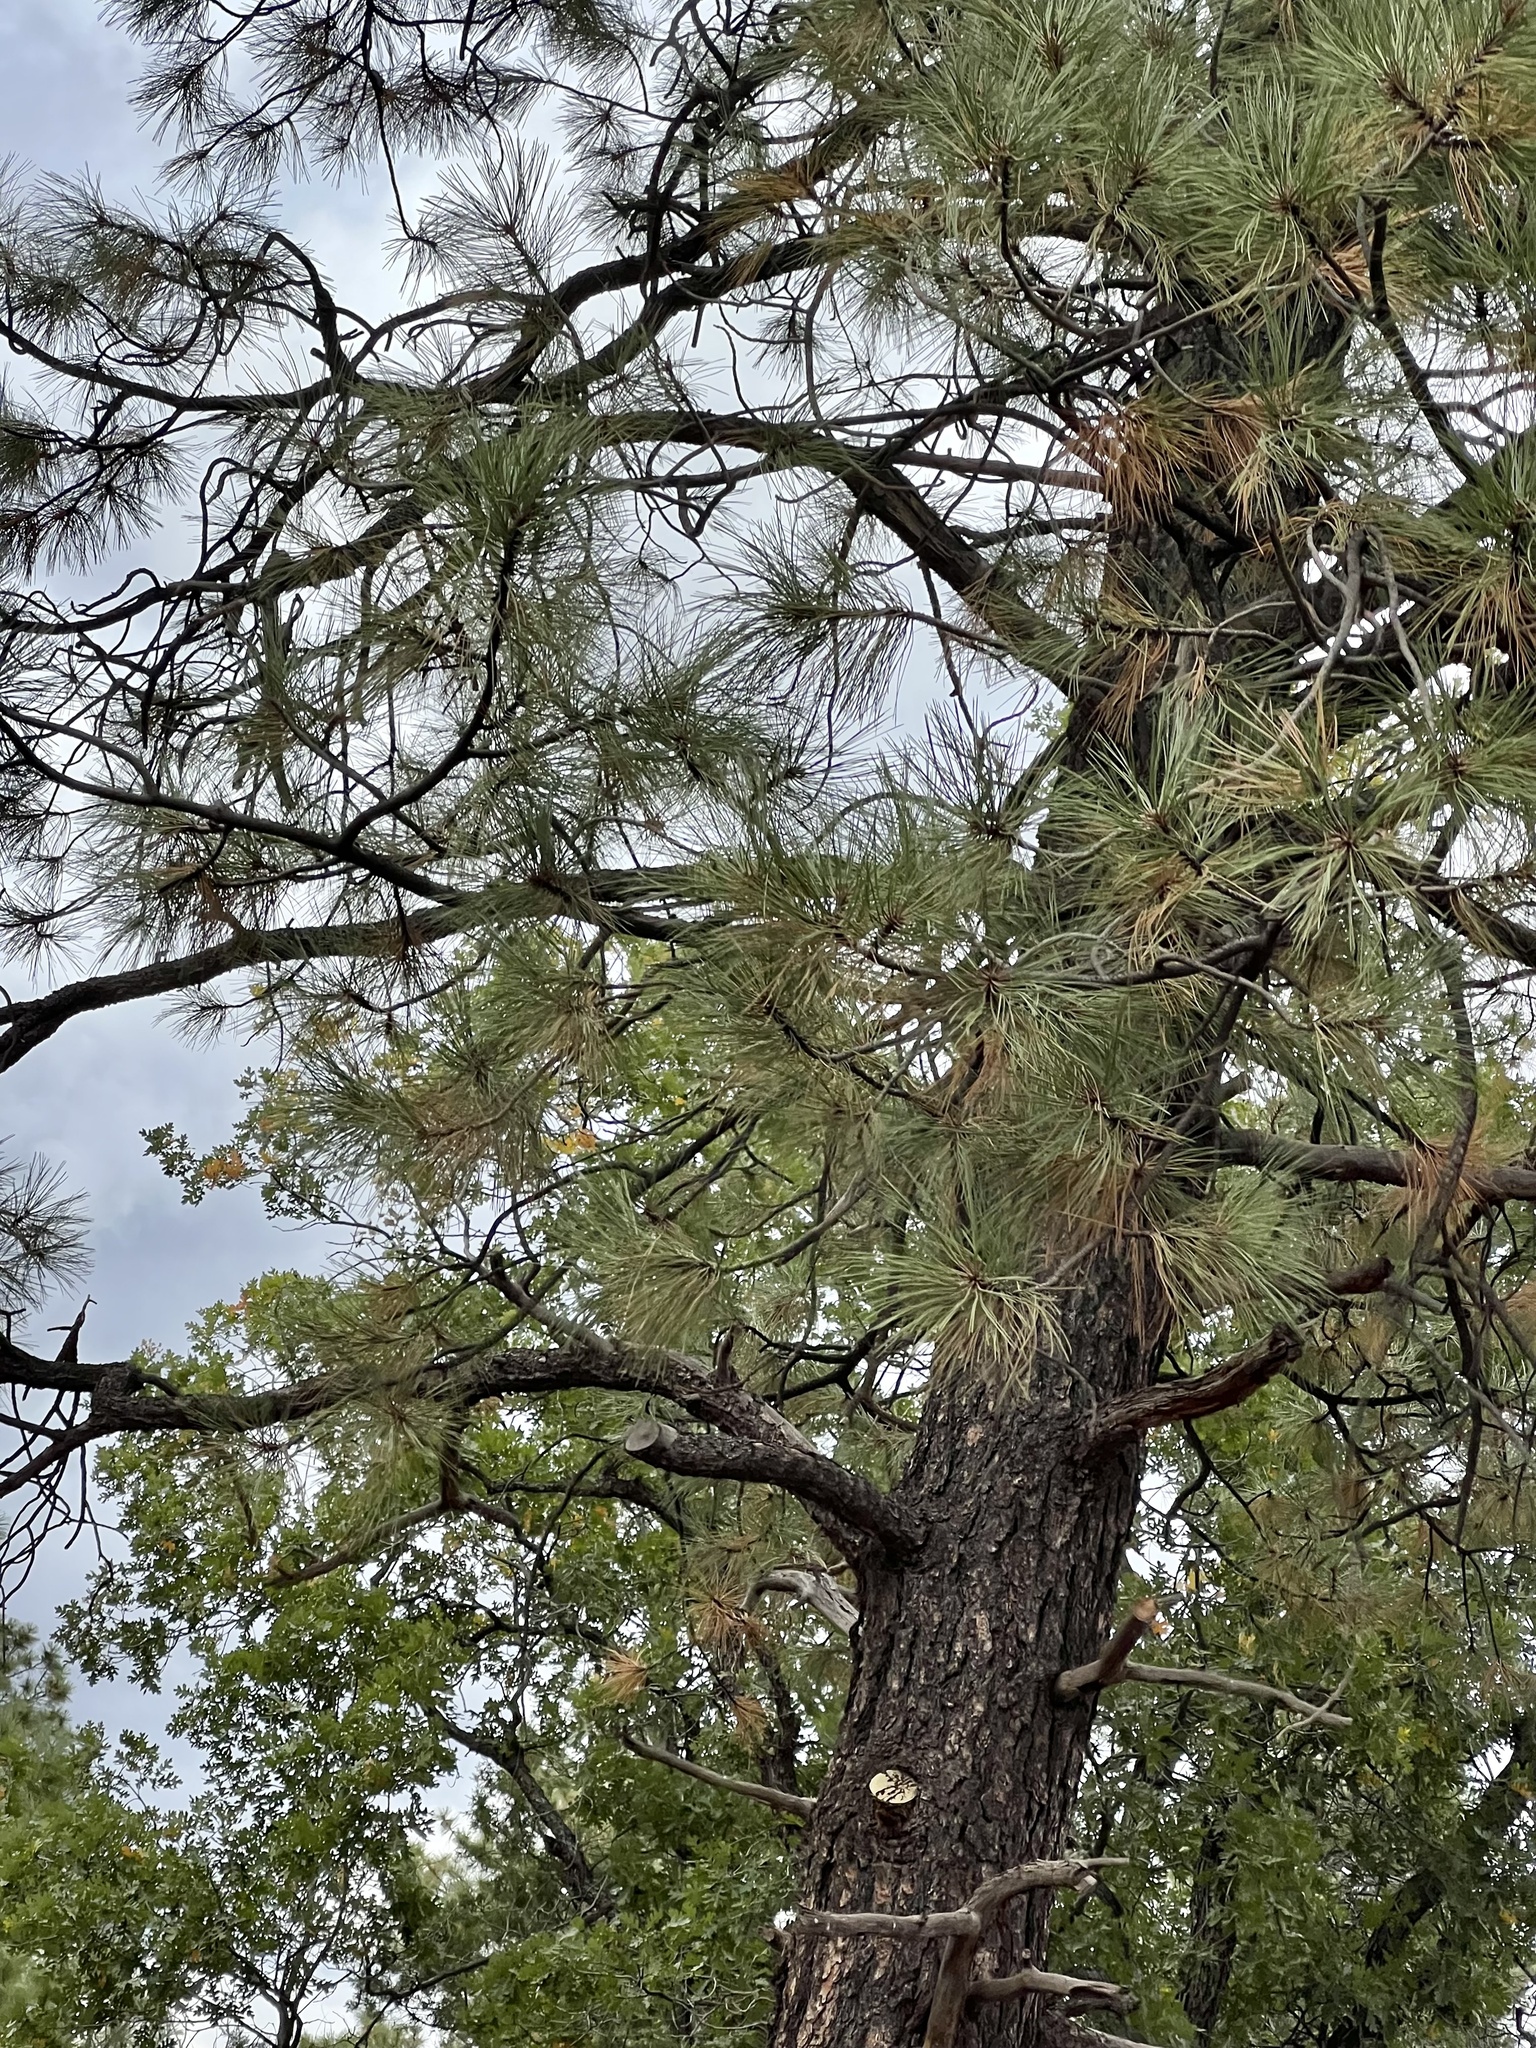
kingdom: Plantae
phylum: Tracheophyta
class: Pinopsida
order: Pinales
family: Pinaceae
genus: Pinus
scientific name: Pinus ponderosa
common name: Western yellow-pine
